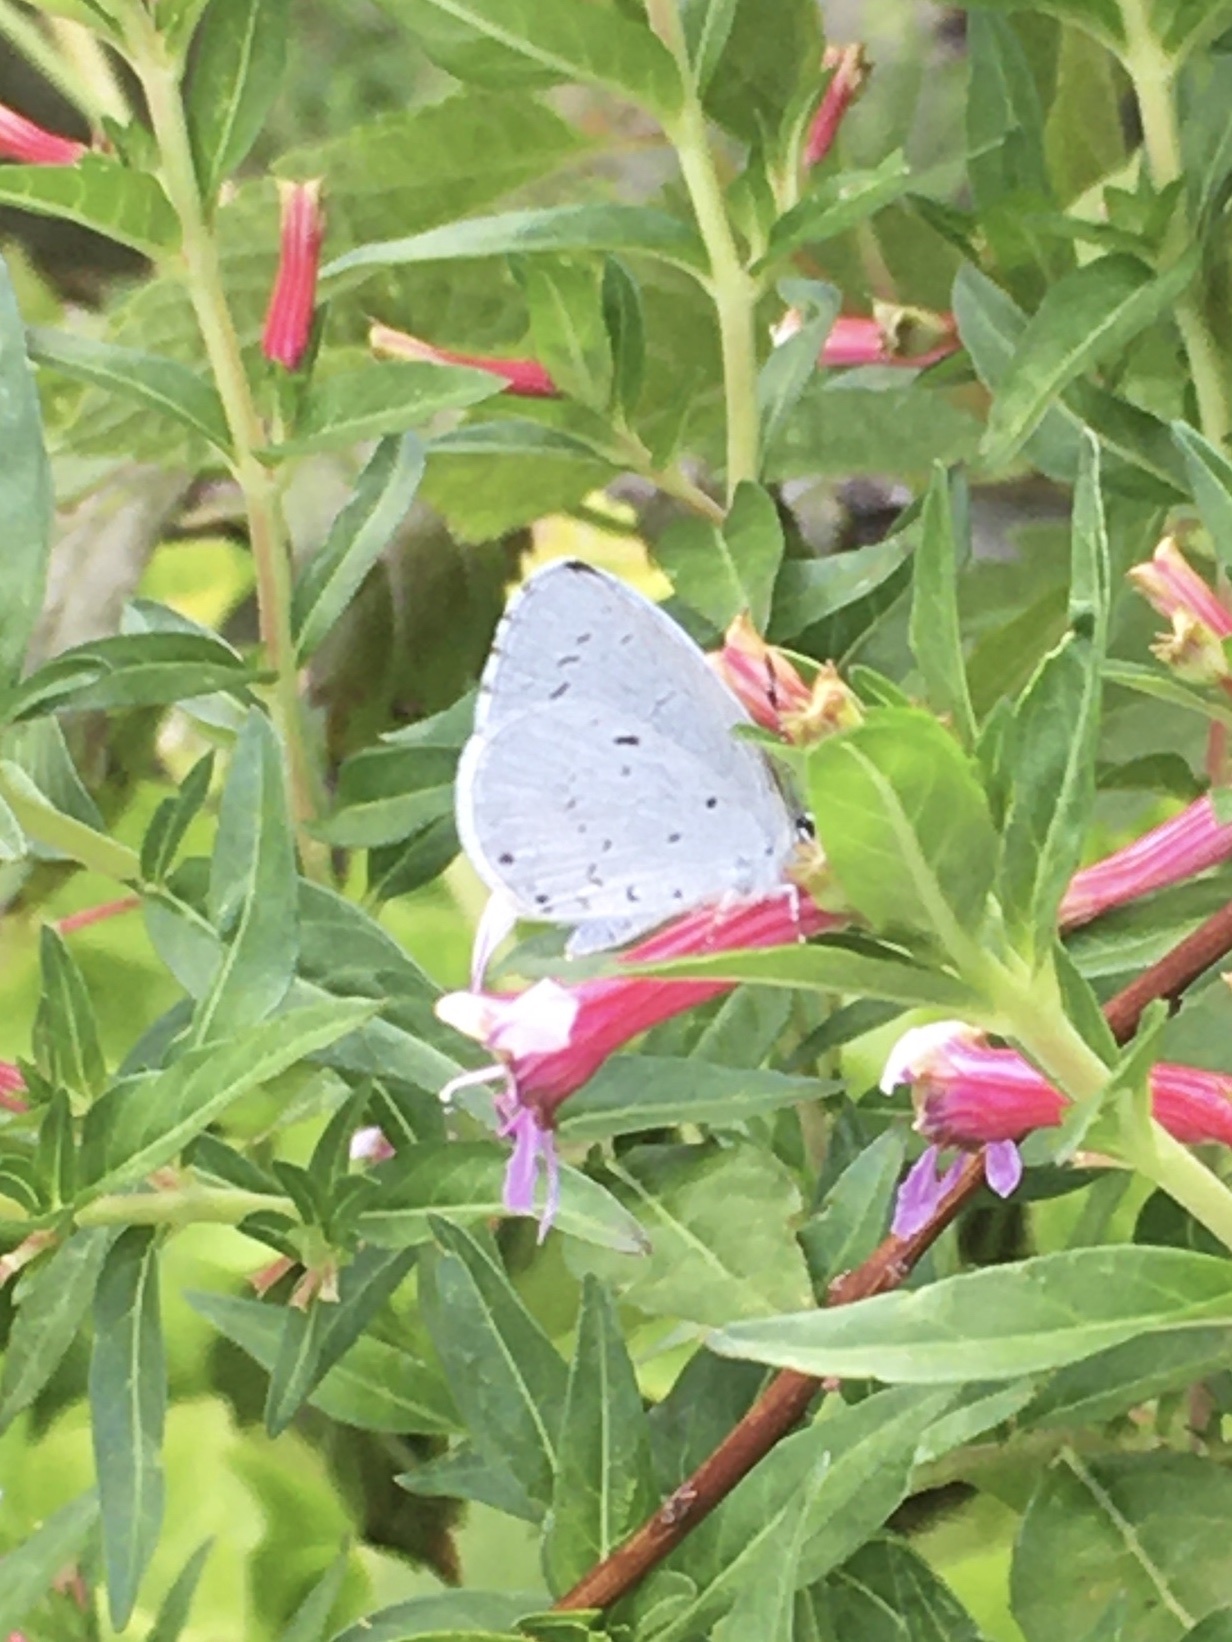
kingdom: Animalia
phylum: Arthropoda
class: Insecta
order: Lepidoptera
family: Lycaenidae
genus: Cyaniris
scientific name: Cyaniris neglecta
